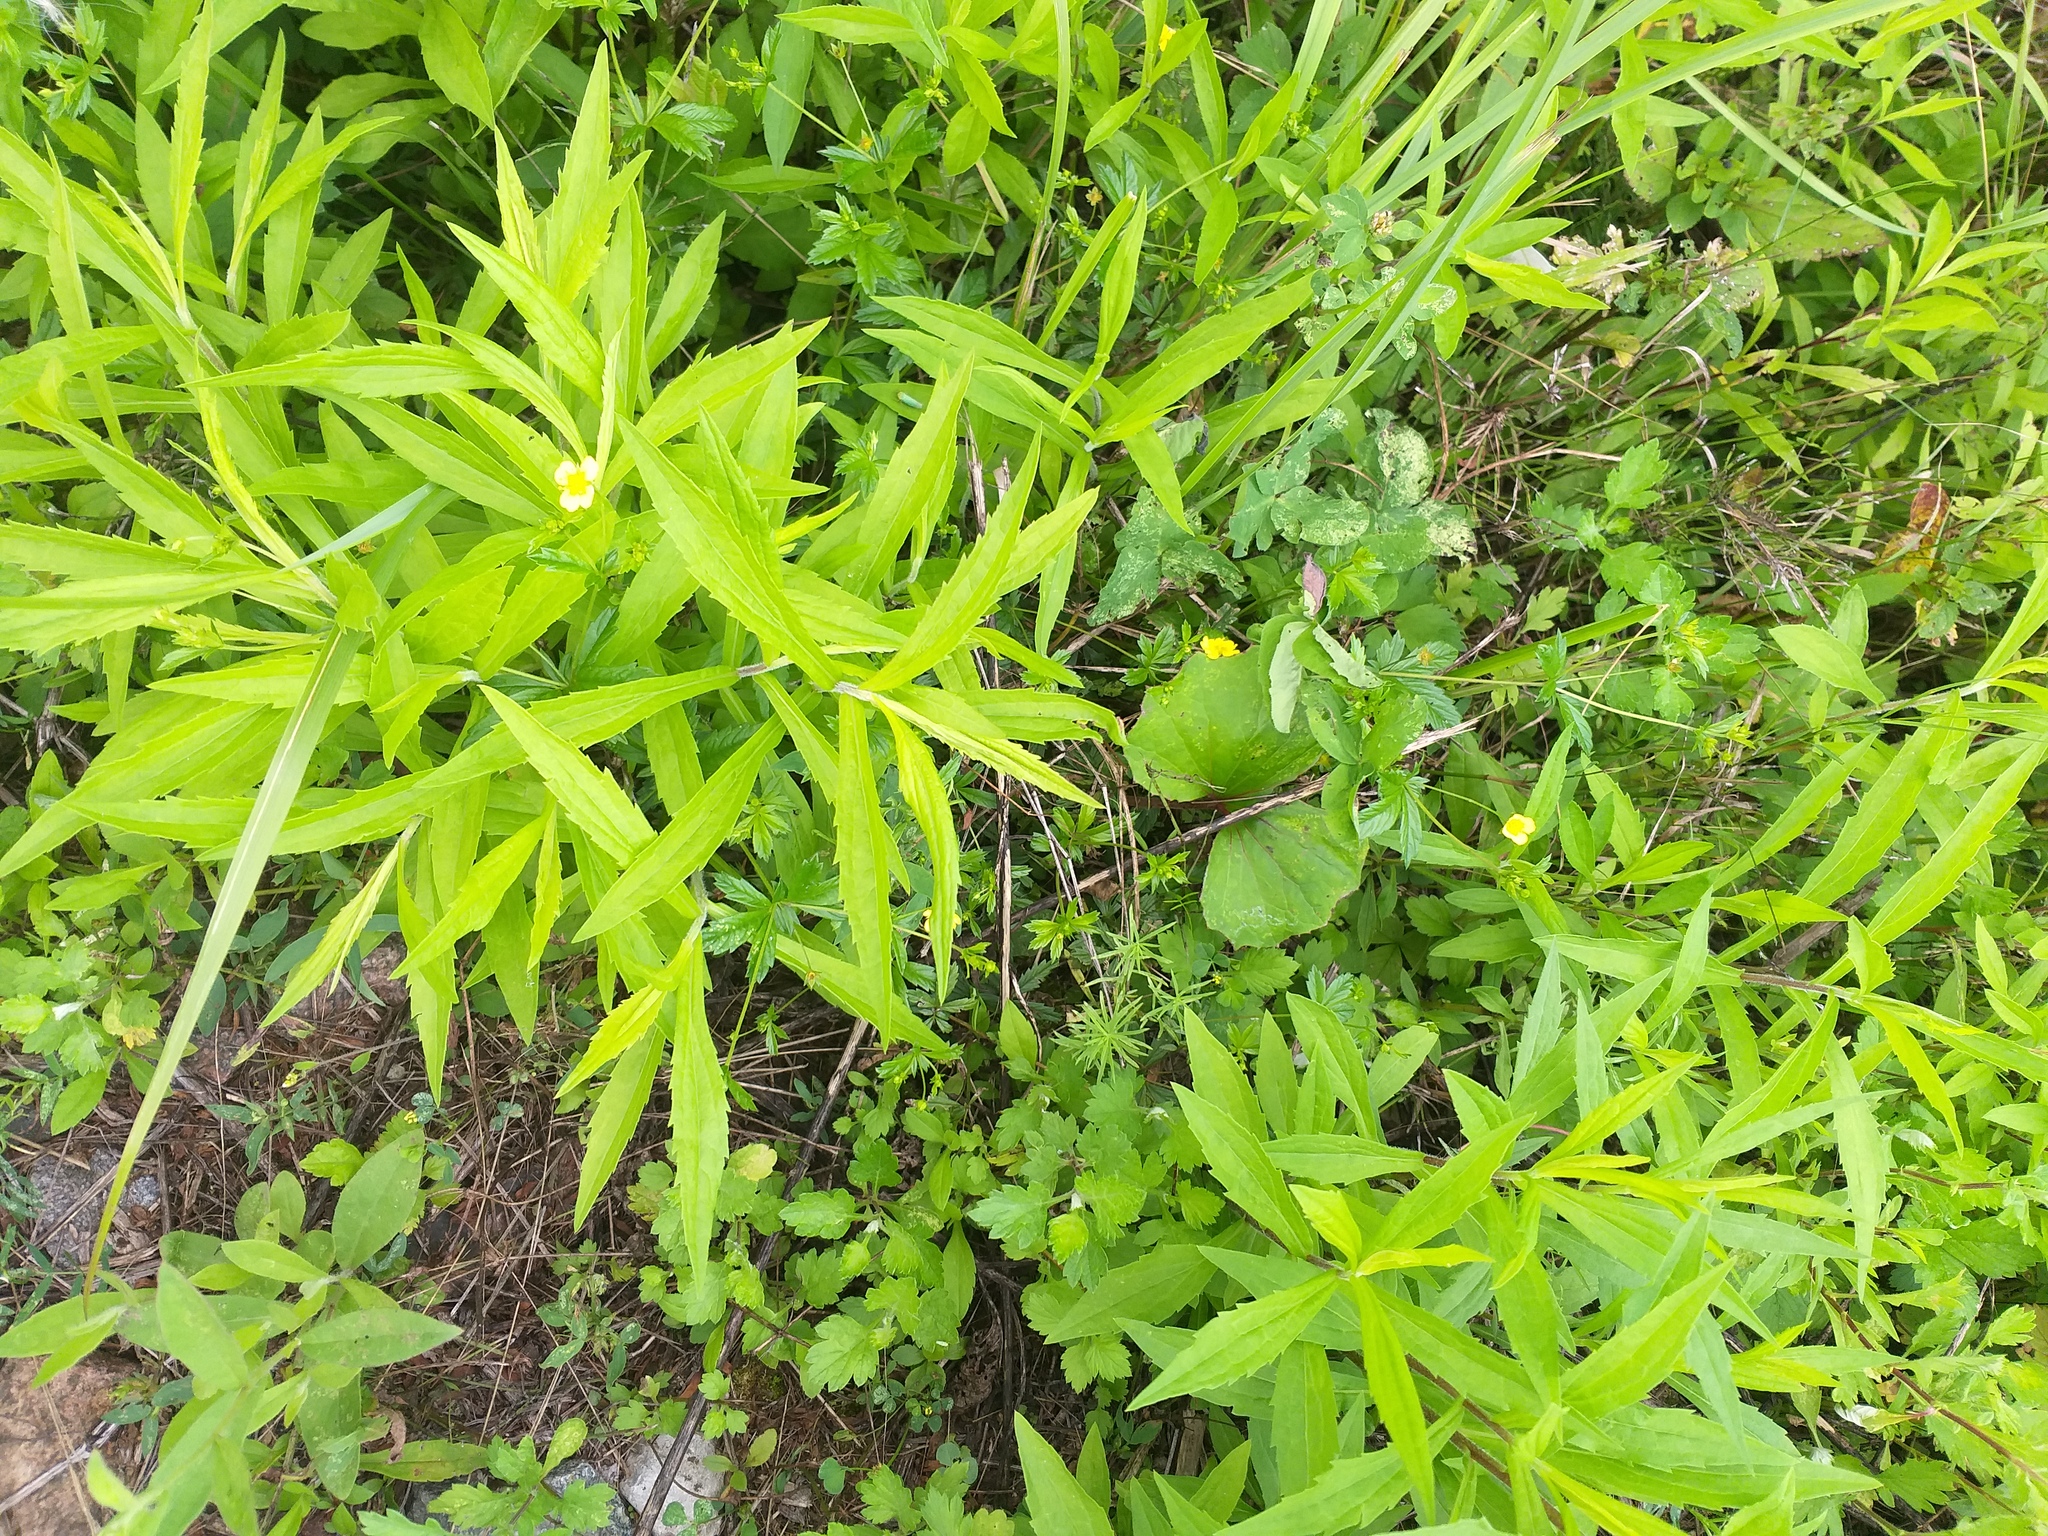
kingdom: Plantae
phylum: Tracheophyta
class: Magnoliopsida
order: Rosales
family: Rosaceae
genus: Potentilla
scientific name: Potentilla erecta
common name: Tormentil
